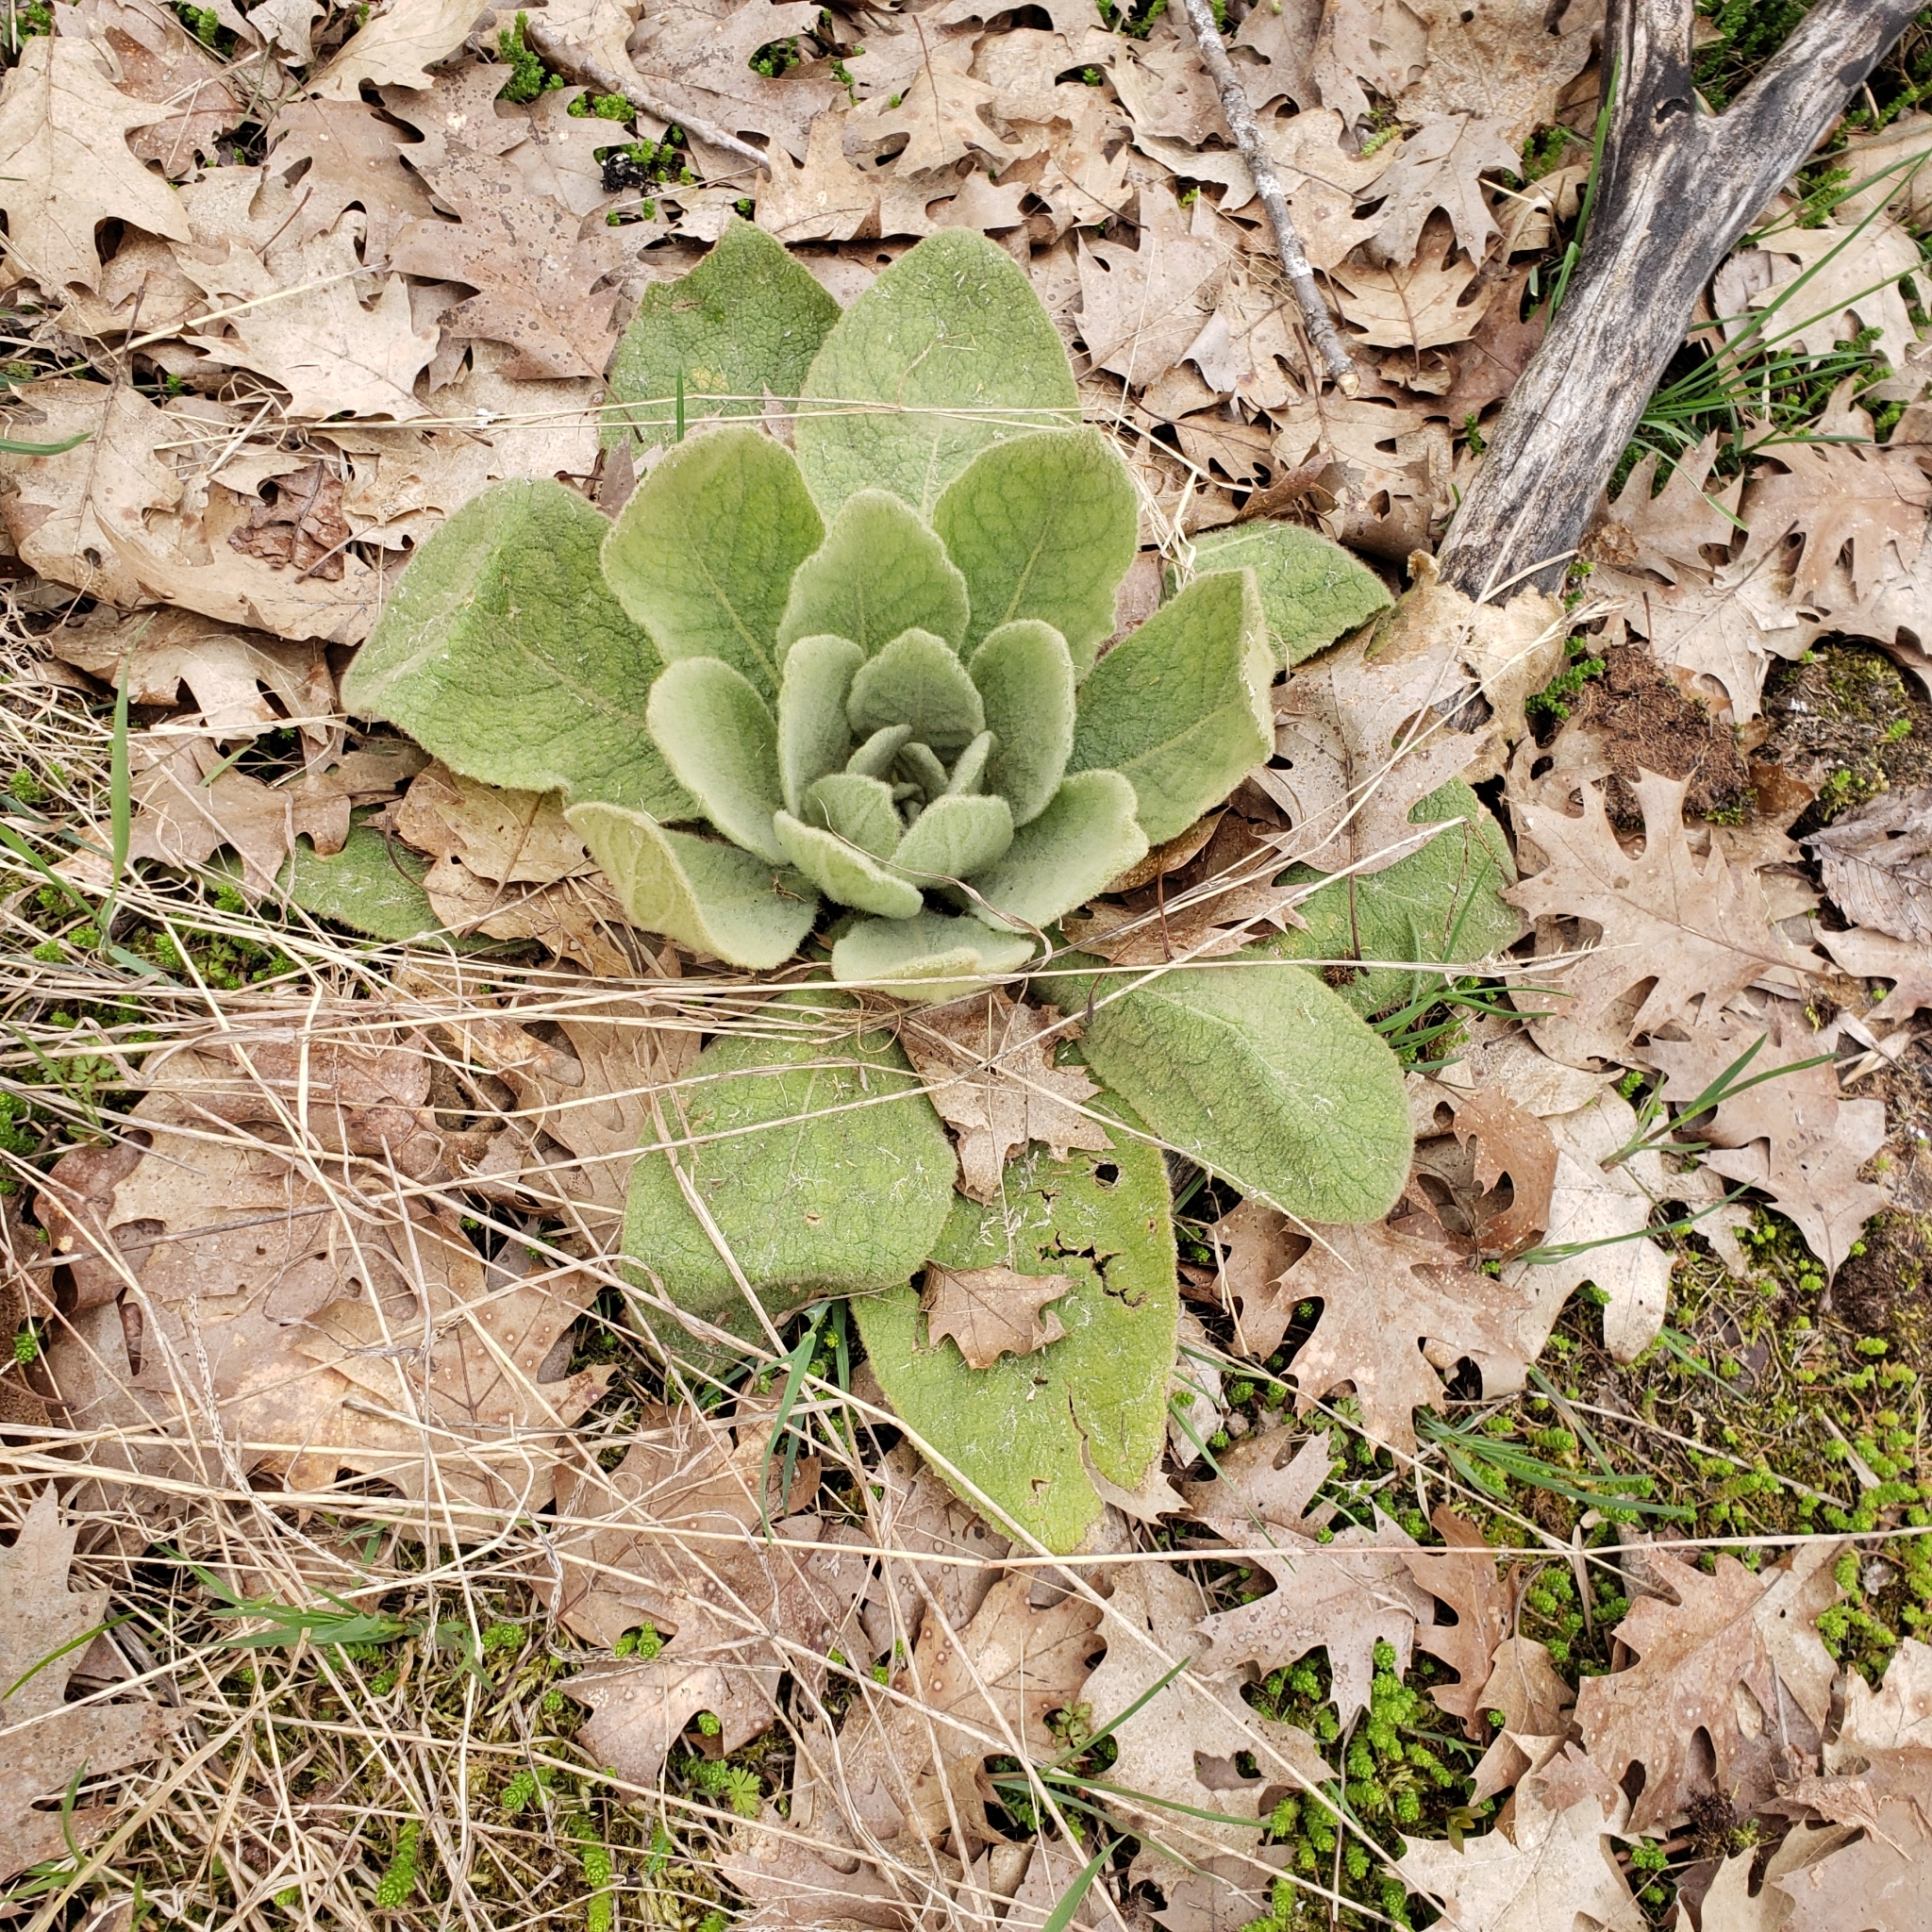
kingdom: Plantae
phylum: Tracheophyta
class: Magnoliopsida
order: Lamiales
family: Scrophulariaceae
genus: Verbascum
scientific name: Verbascum thapsus
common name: Common mullein
